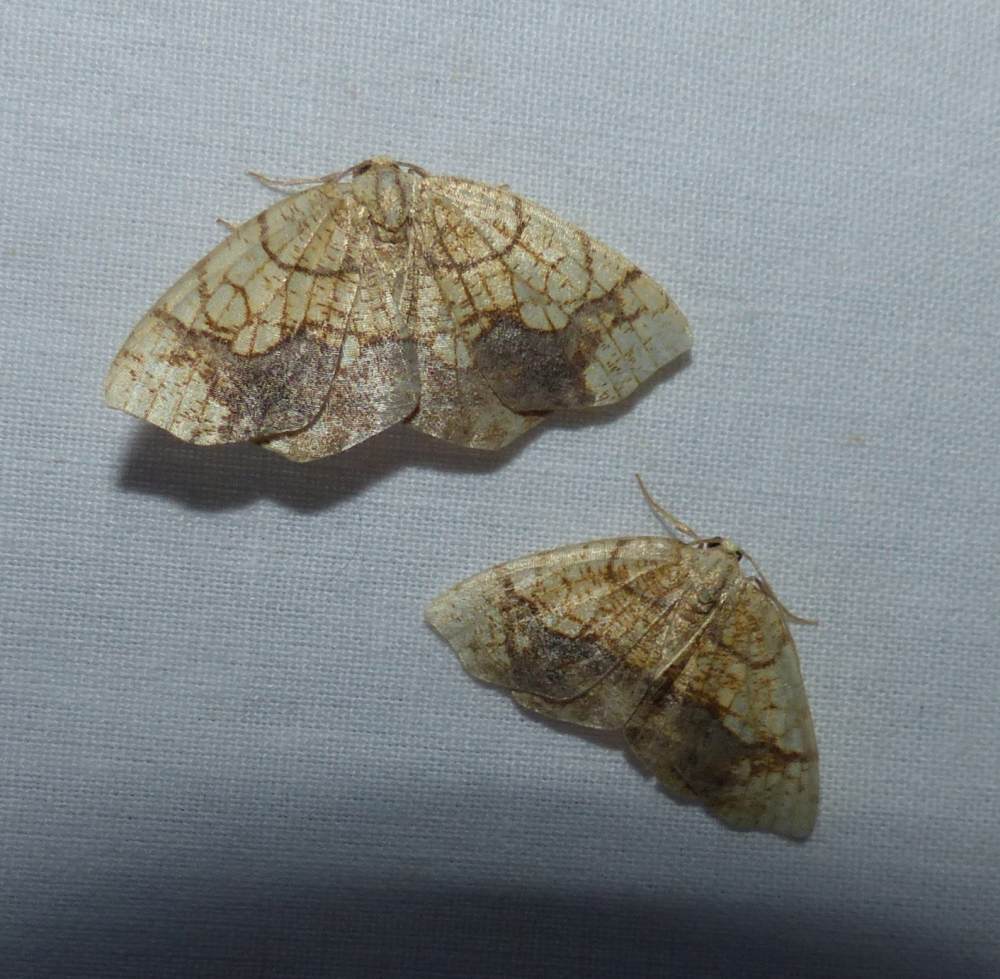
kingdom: Animalia
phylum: Arthropoda
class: Insecta
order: Lepidoptera
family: Geometridae
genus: Nematocampa
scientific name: Nematocampa resistaria
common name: Horned spanworm moth
